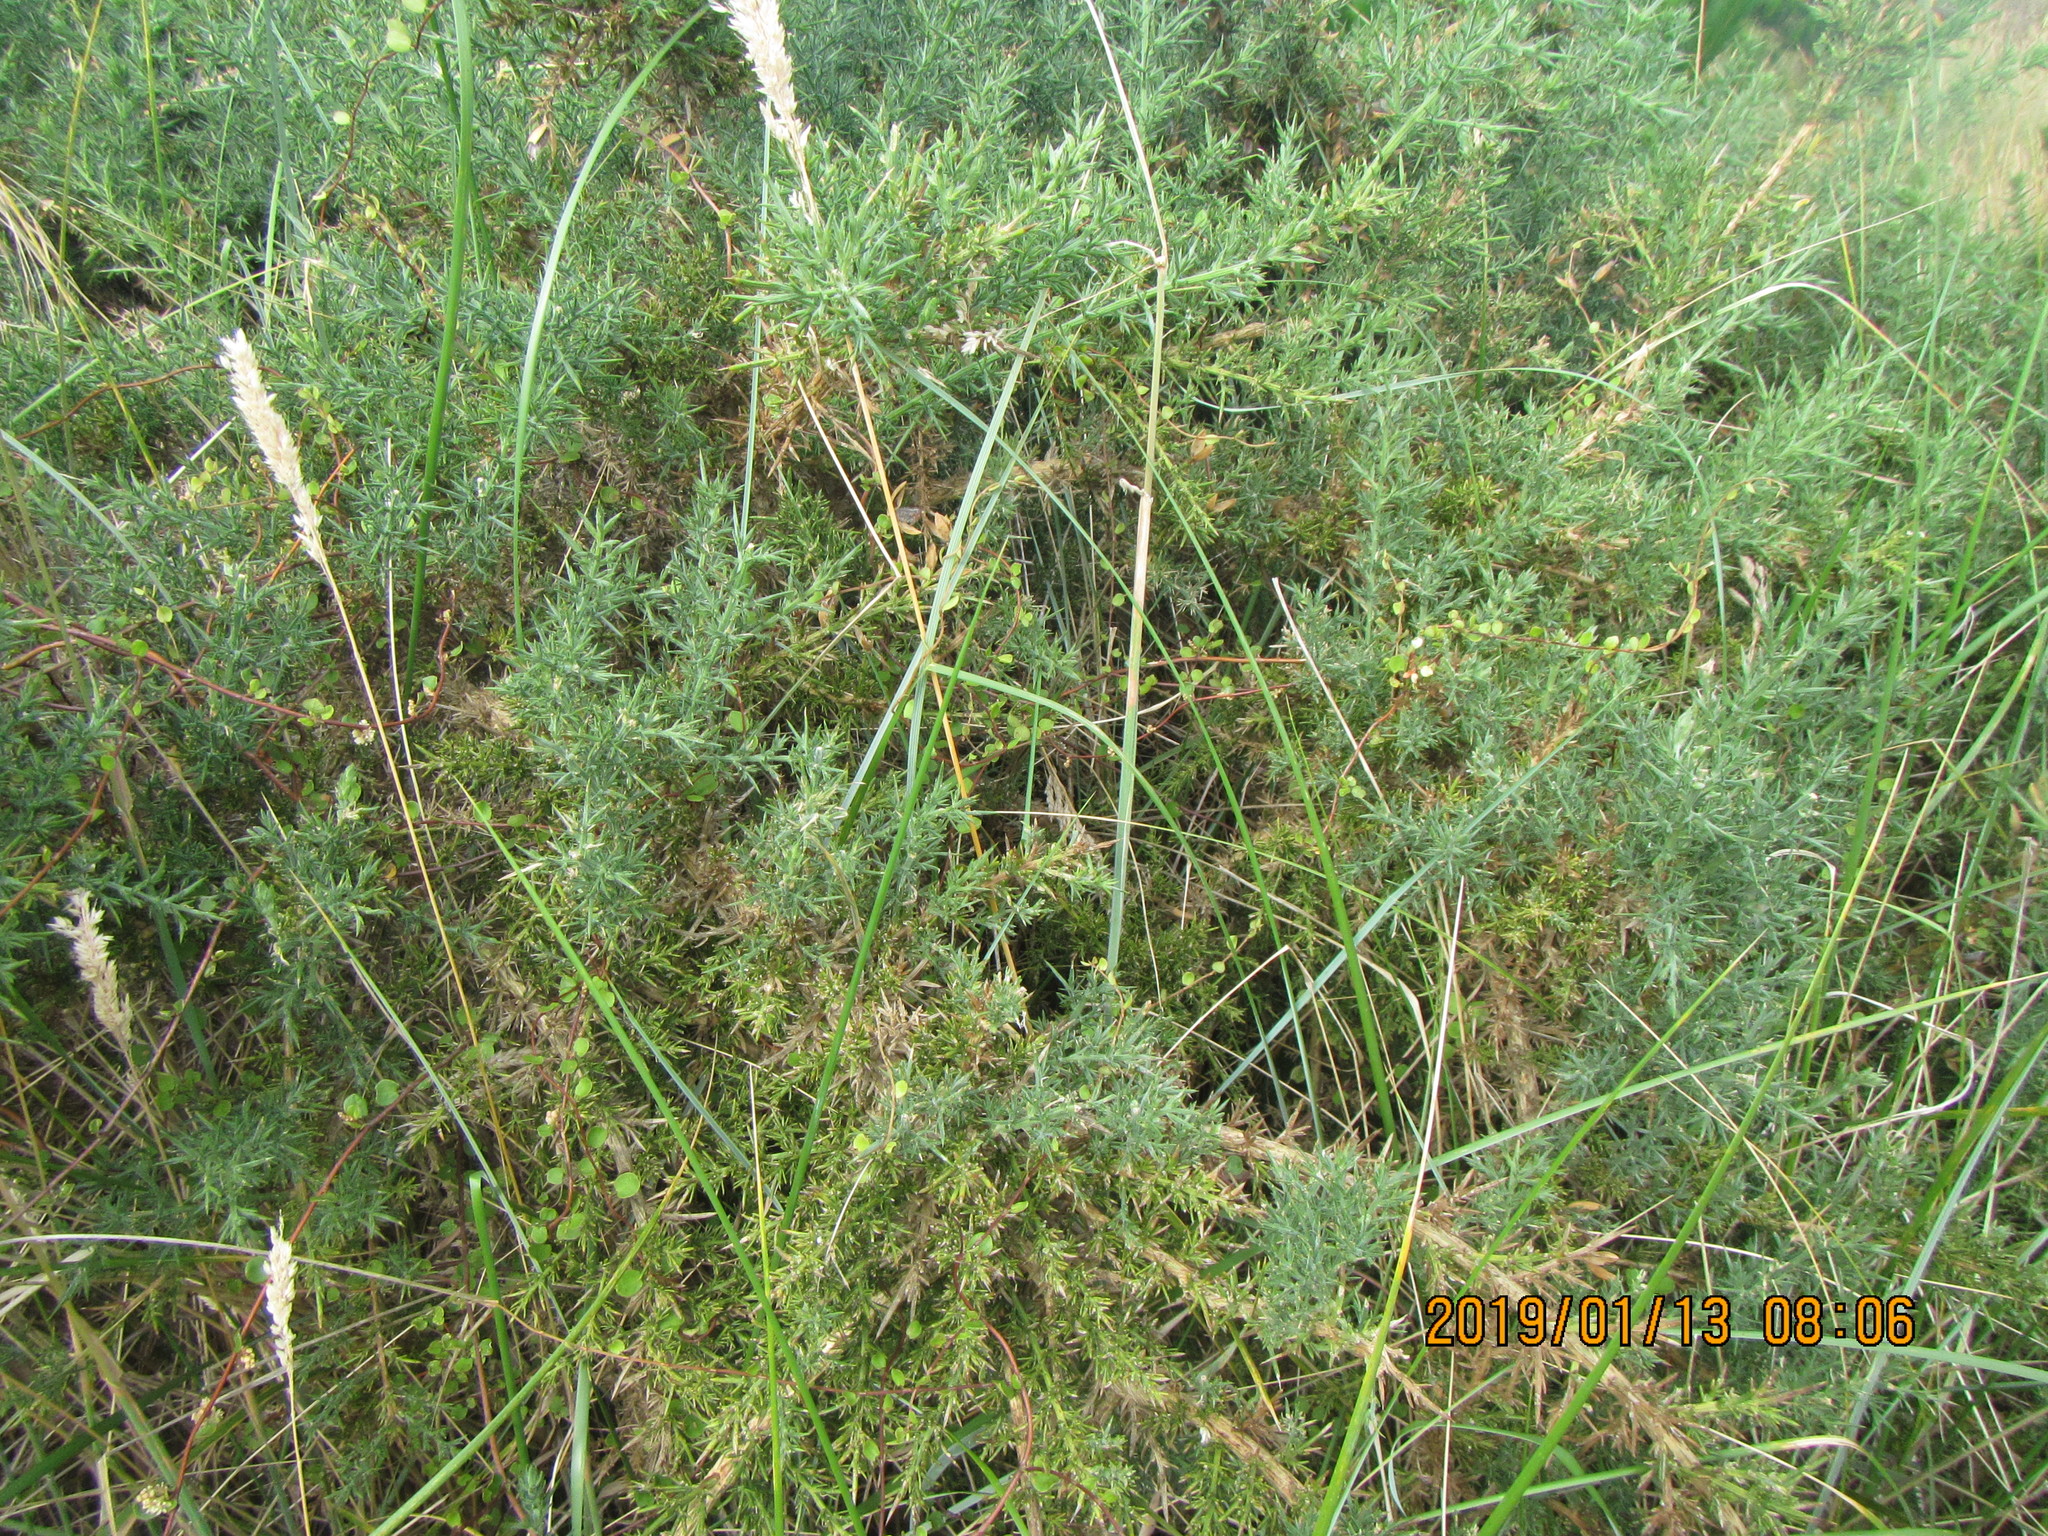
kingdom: Plantae
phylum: Tracheophyta
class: Magnoliopsida
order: Caryophyllales
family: Polygonaceae
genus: Muehlenbeckia
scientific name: Muehlenbeckia complexa
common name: Wireplant
